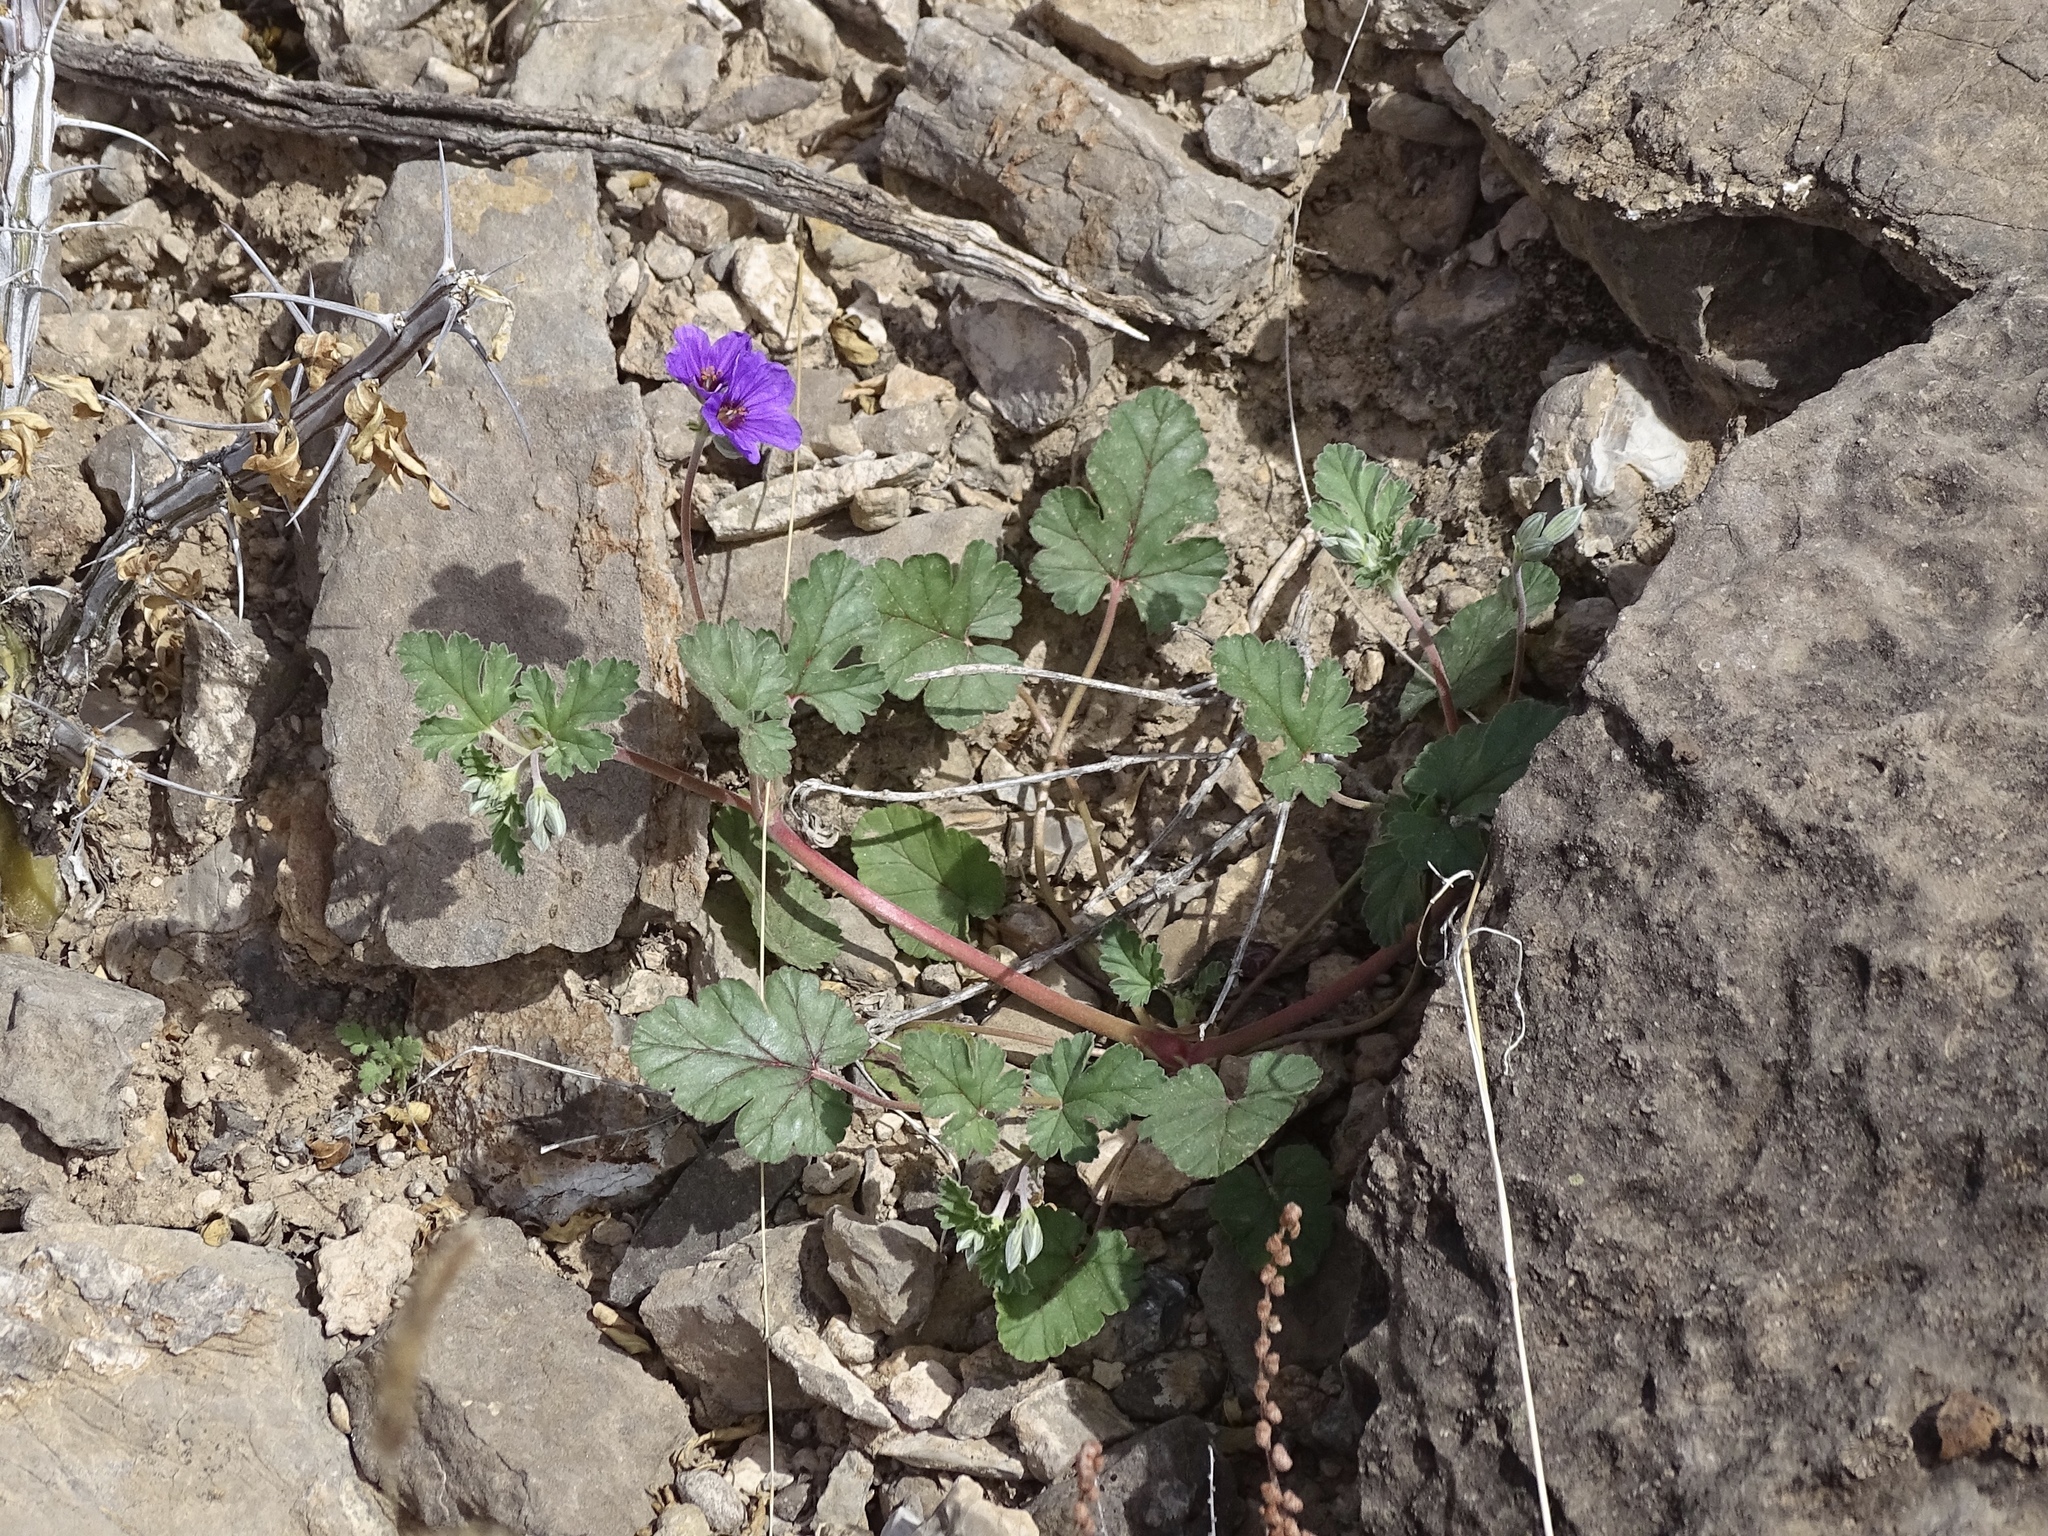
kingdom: Plantae
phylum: Tracheophyta
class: Magnoliopsida
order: Geraniales
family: Geraniaceae
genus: Erodium
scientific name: Erodium texanum
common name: Texas stork's-bill
